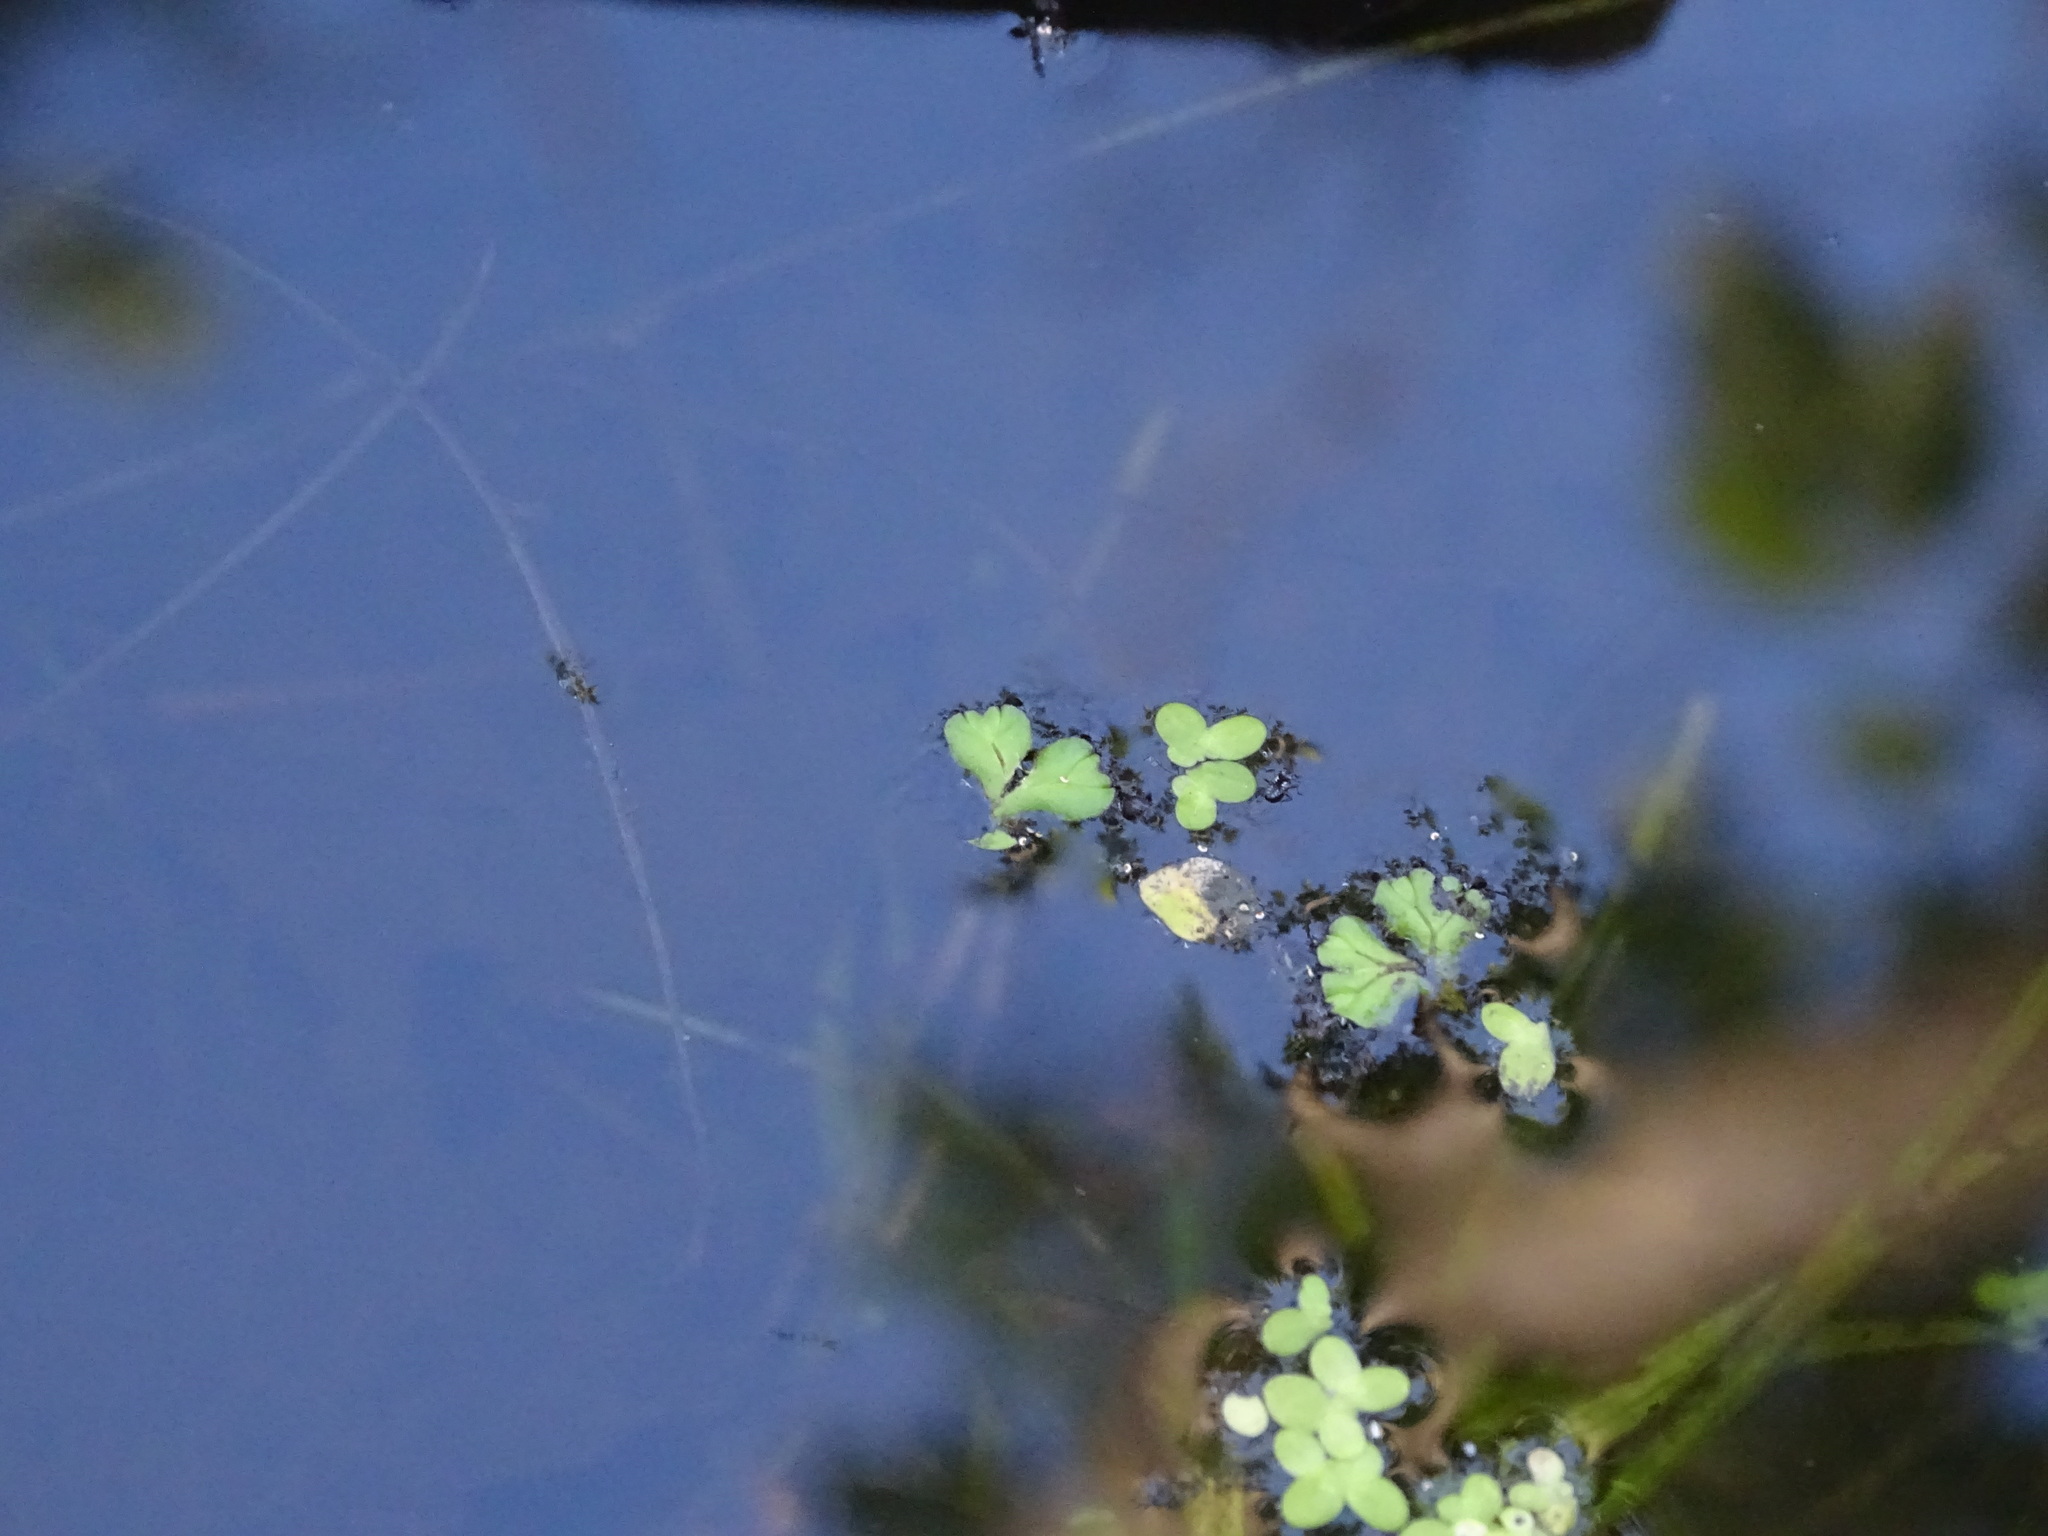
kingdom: Plantae
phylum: Marchantiophyta
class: Marchantiopsida
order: Marchantiales
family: Ricciaceae
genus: Ricciocarpos
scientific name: Ricciocarpos natans
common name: Purple-fringed liverwort
